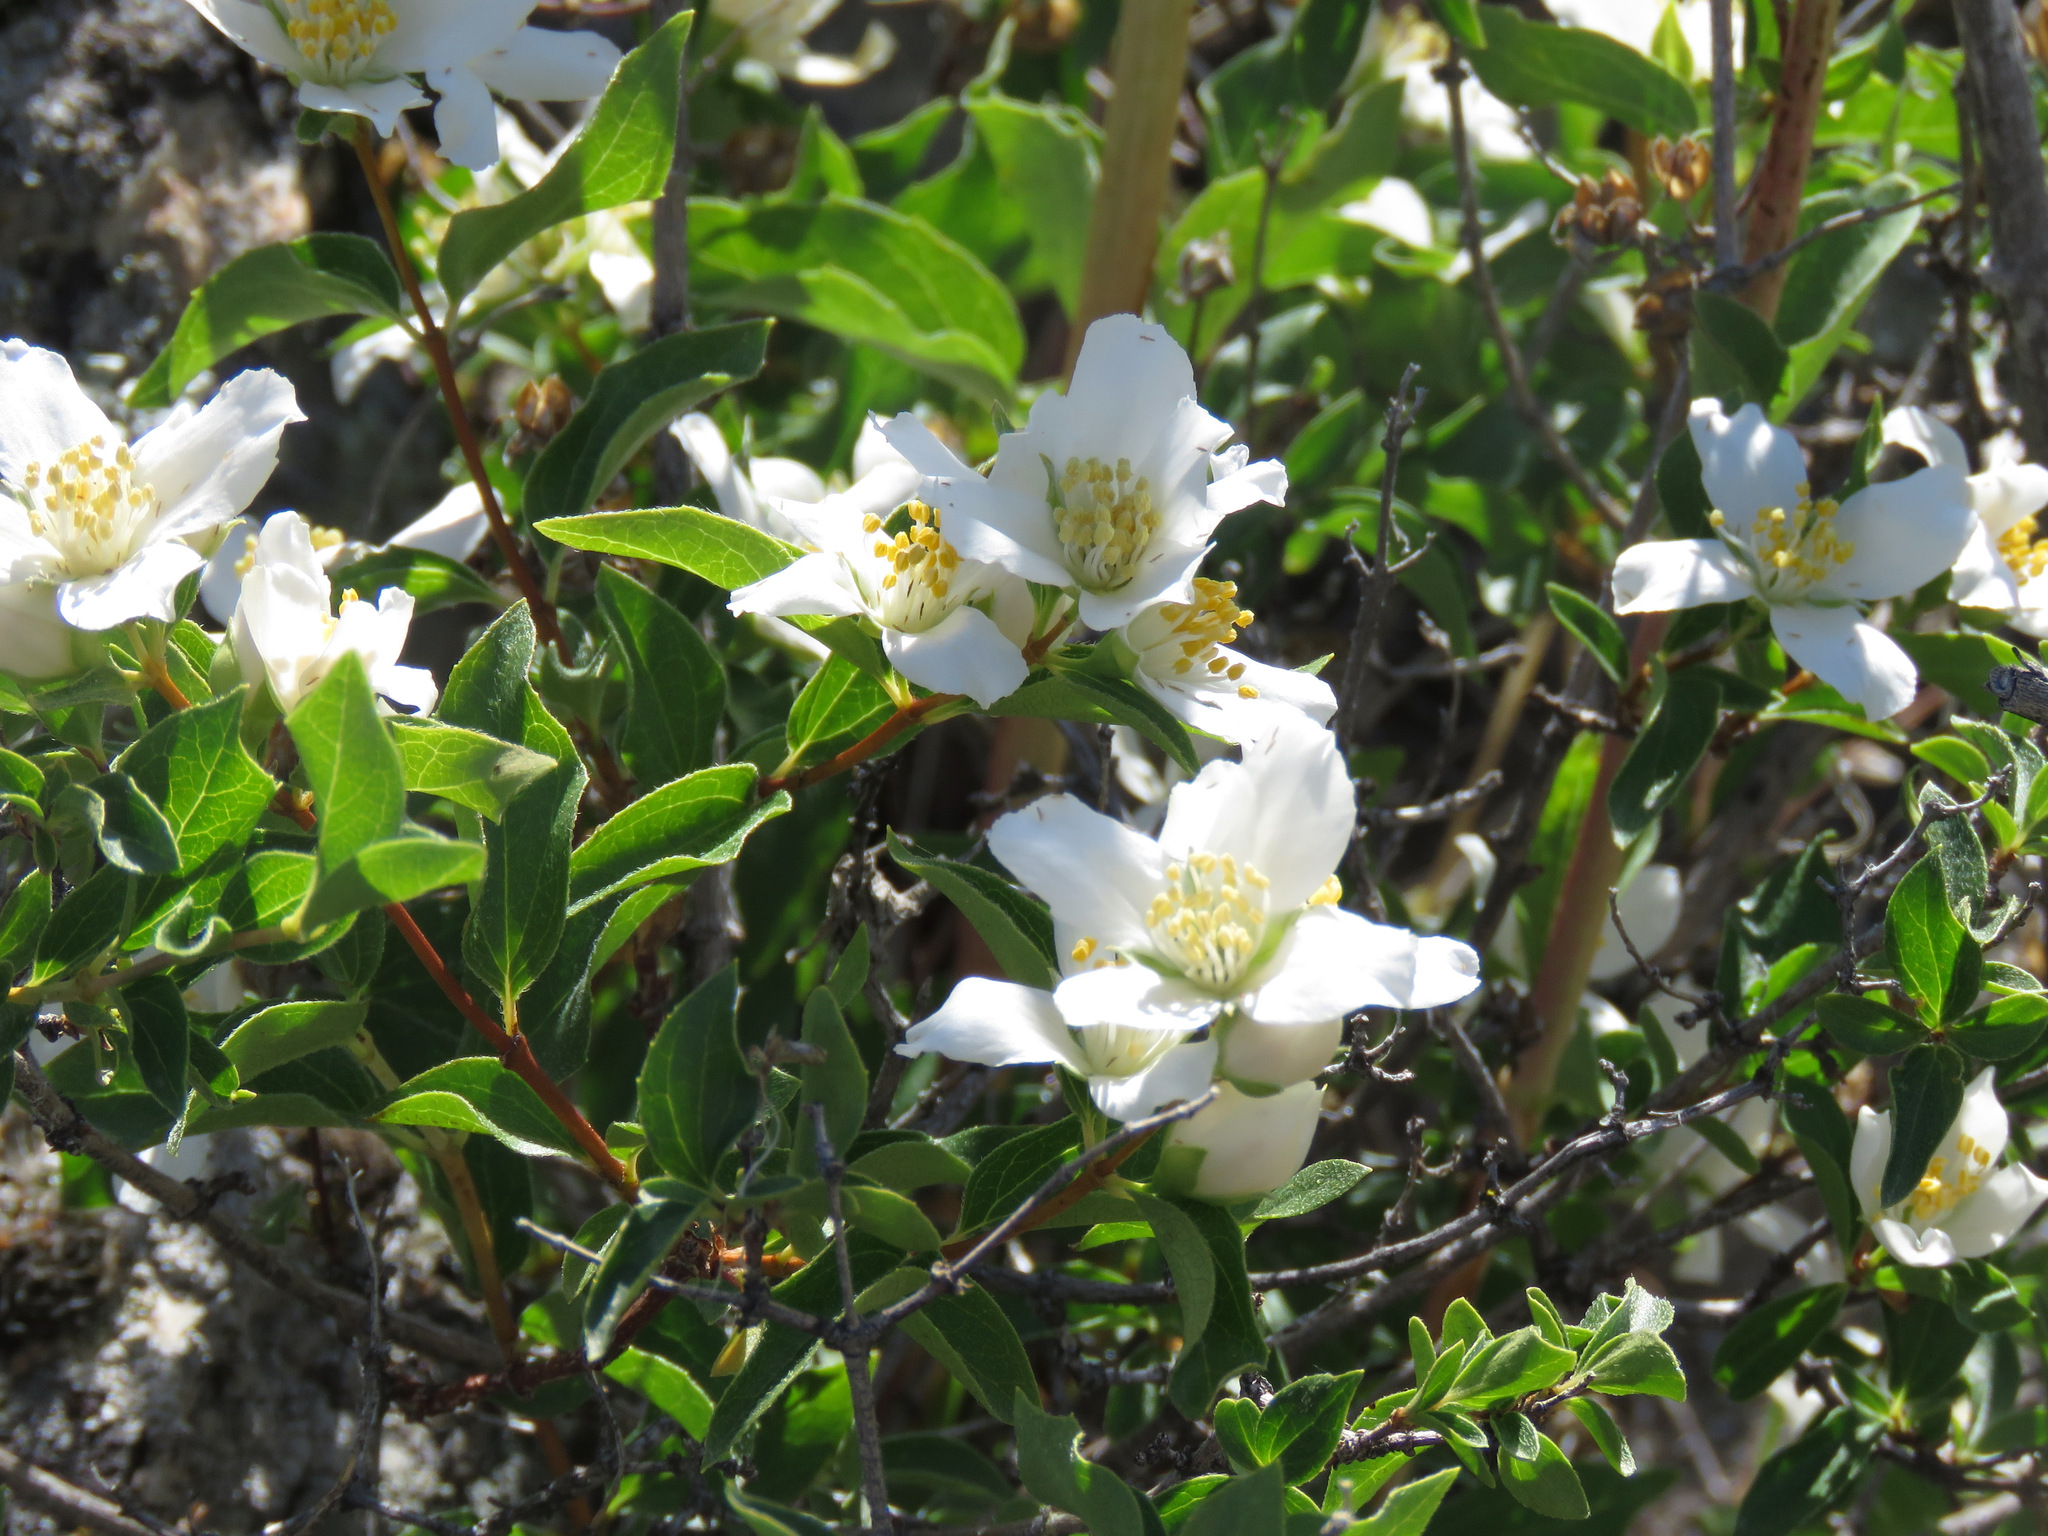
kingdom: Plantae
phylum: Tracheophyta
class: Magnoliopsida
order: Cornales
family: Hydrangeaceae
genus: Philadelphus
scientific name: Philadelphus lewisii
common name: Lewis's mock orange
